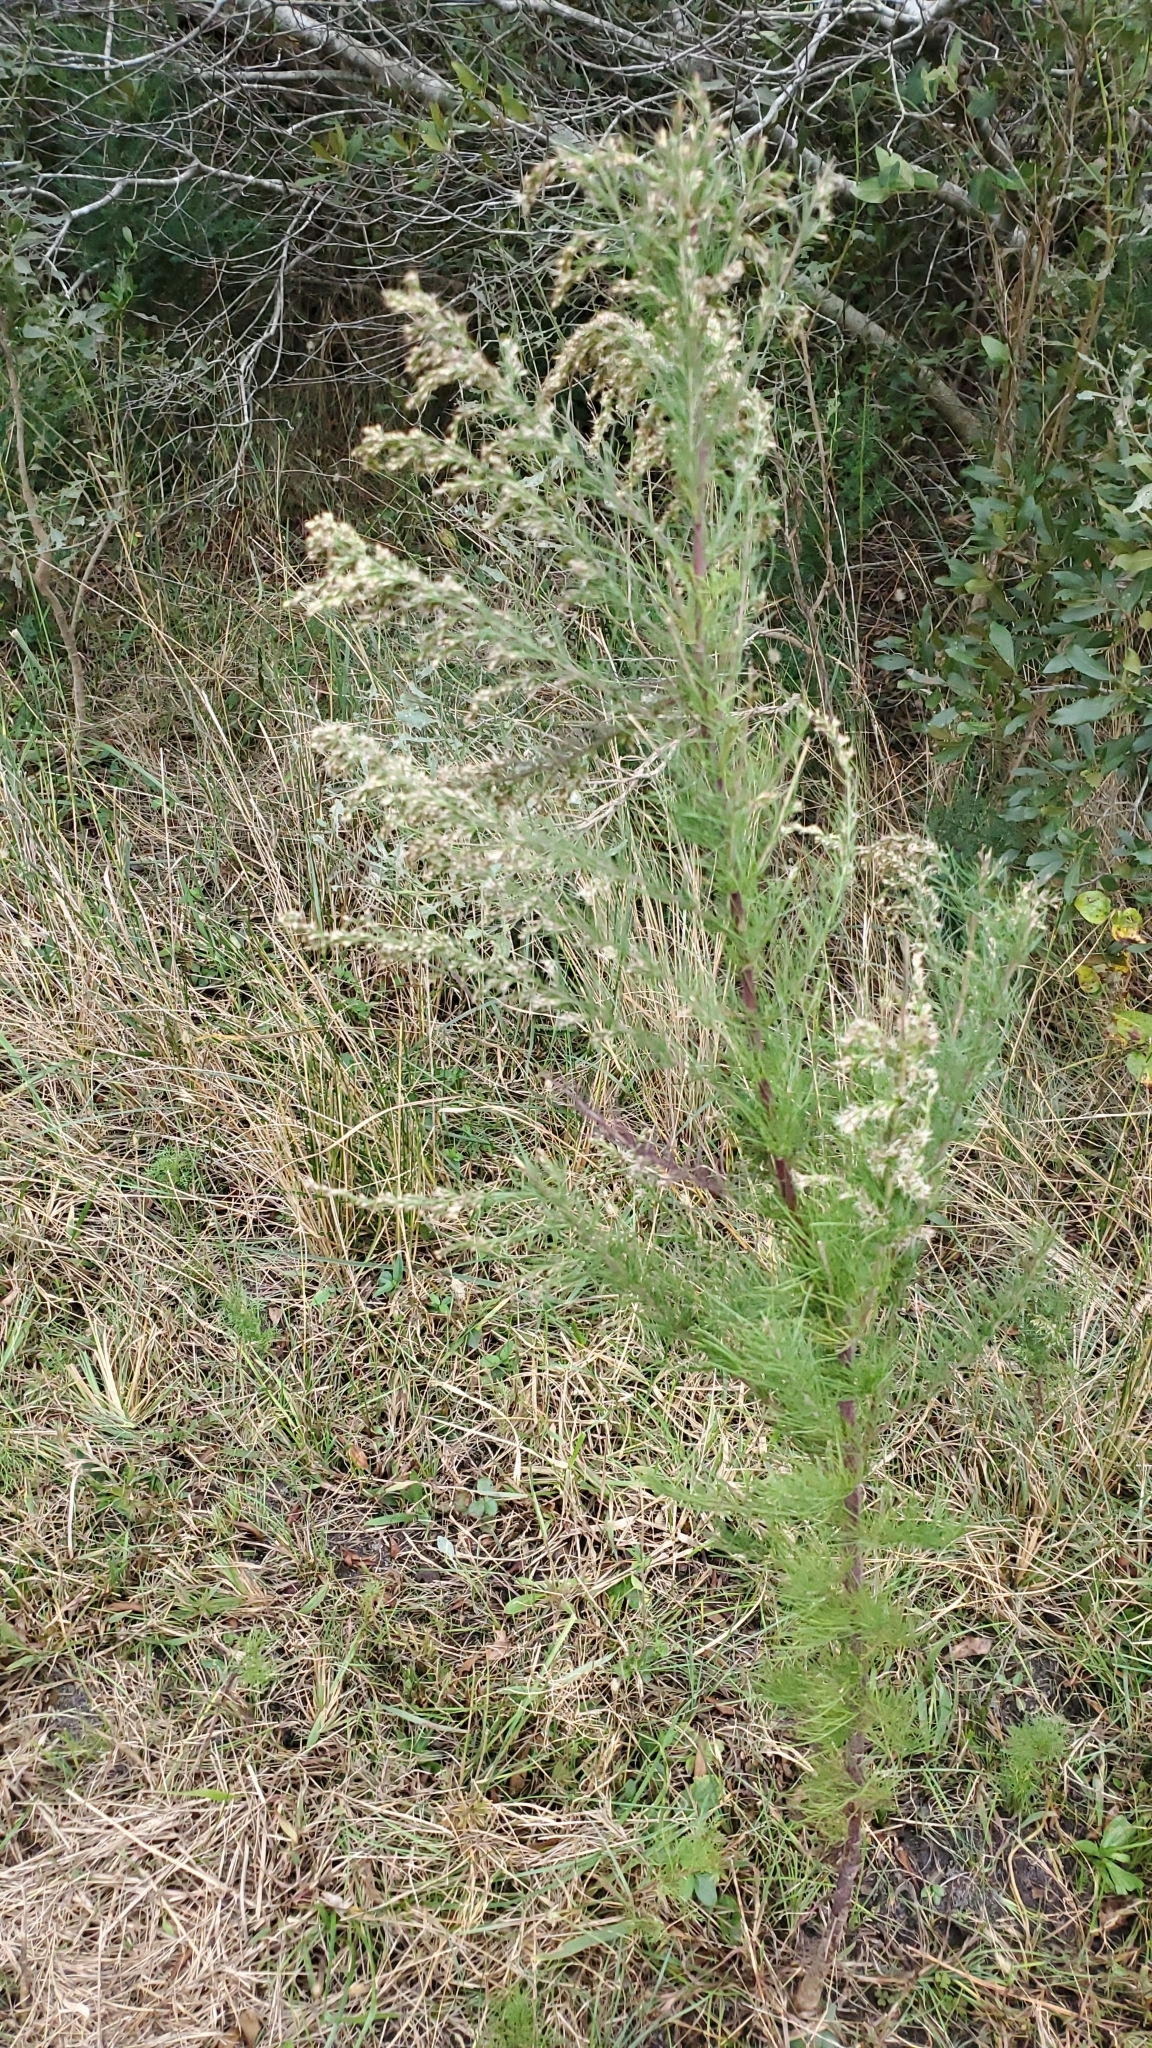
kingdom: Plantae
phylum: Tracheophyta
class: Magnoliopsida
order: Asterales
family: Asteraceae
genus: Eupatorium
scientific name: Eupatorium capillifolium
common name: Dog-fennel
